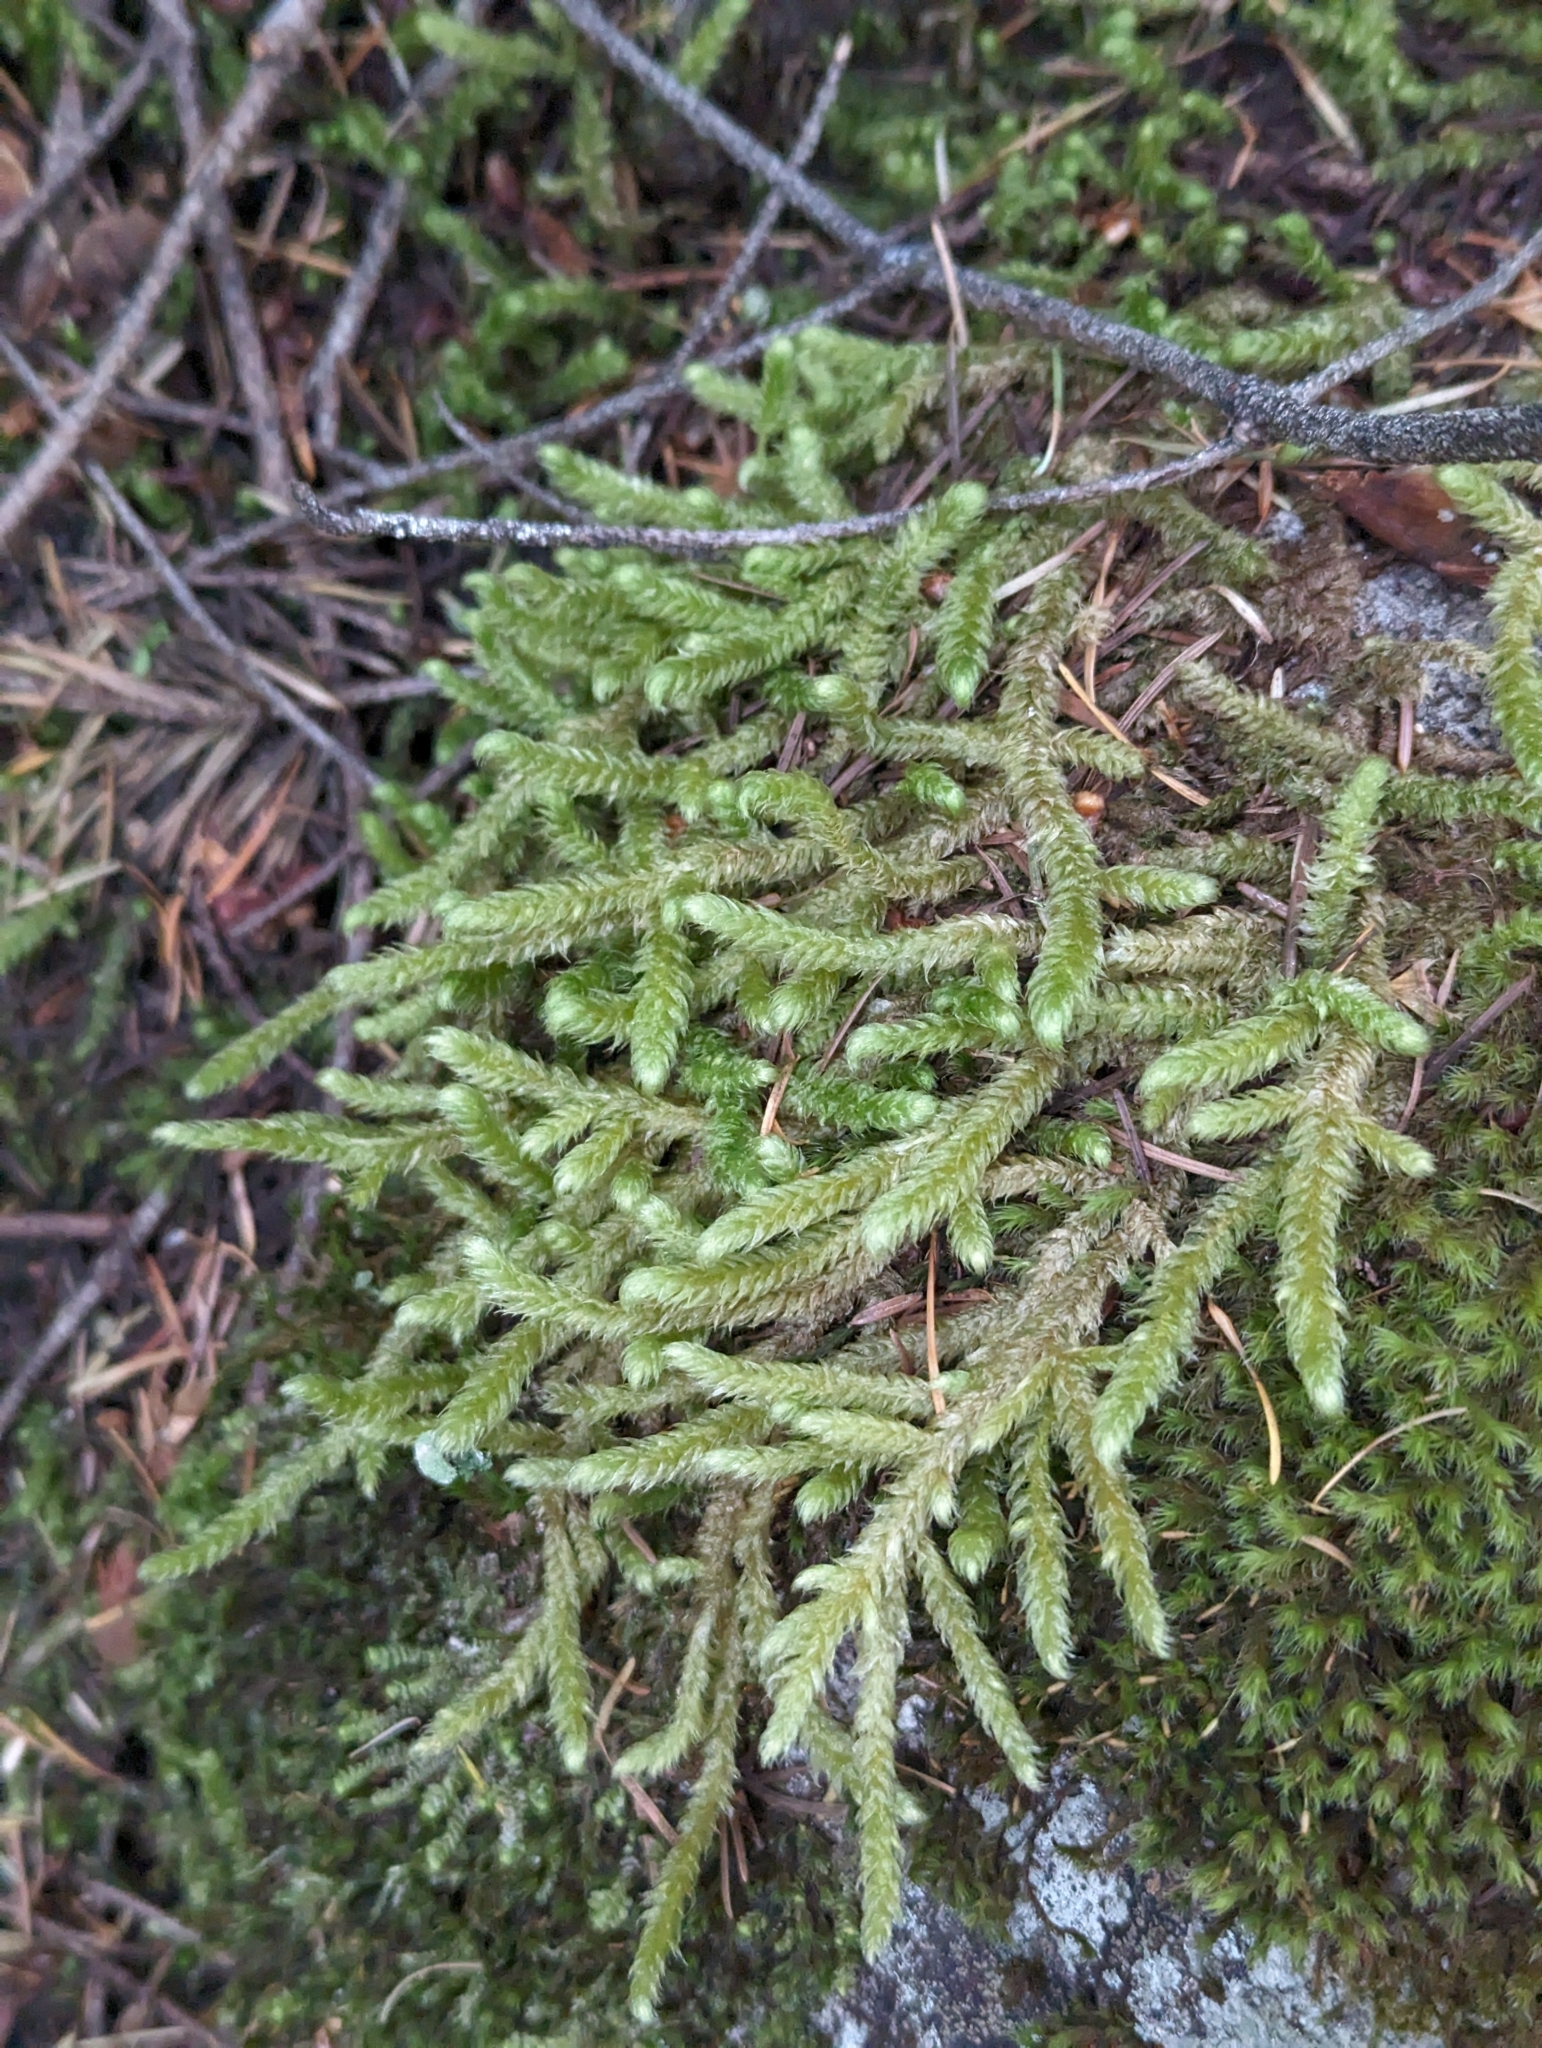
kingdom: Plantae
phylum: Bryophyta
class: Bryopsida
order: Hypnales
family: Hylocomiaceae
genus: Rhytidiopsis
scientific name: Rhytidiopsis robusta
